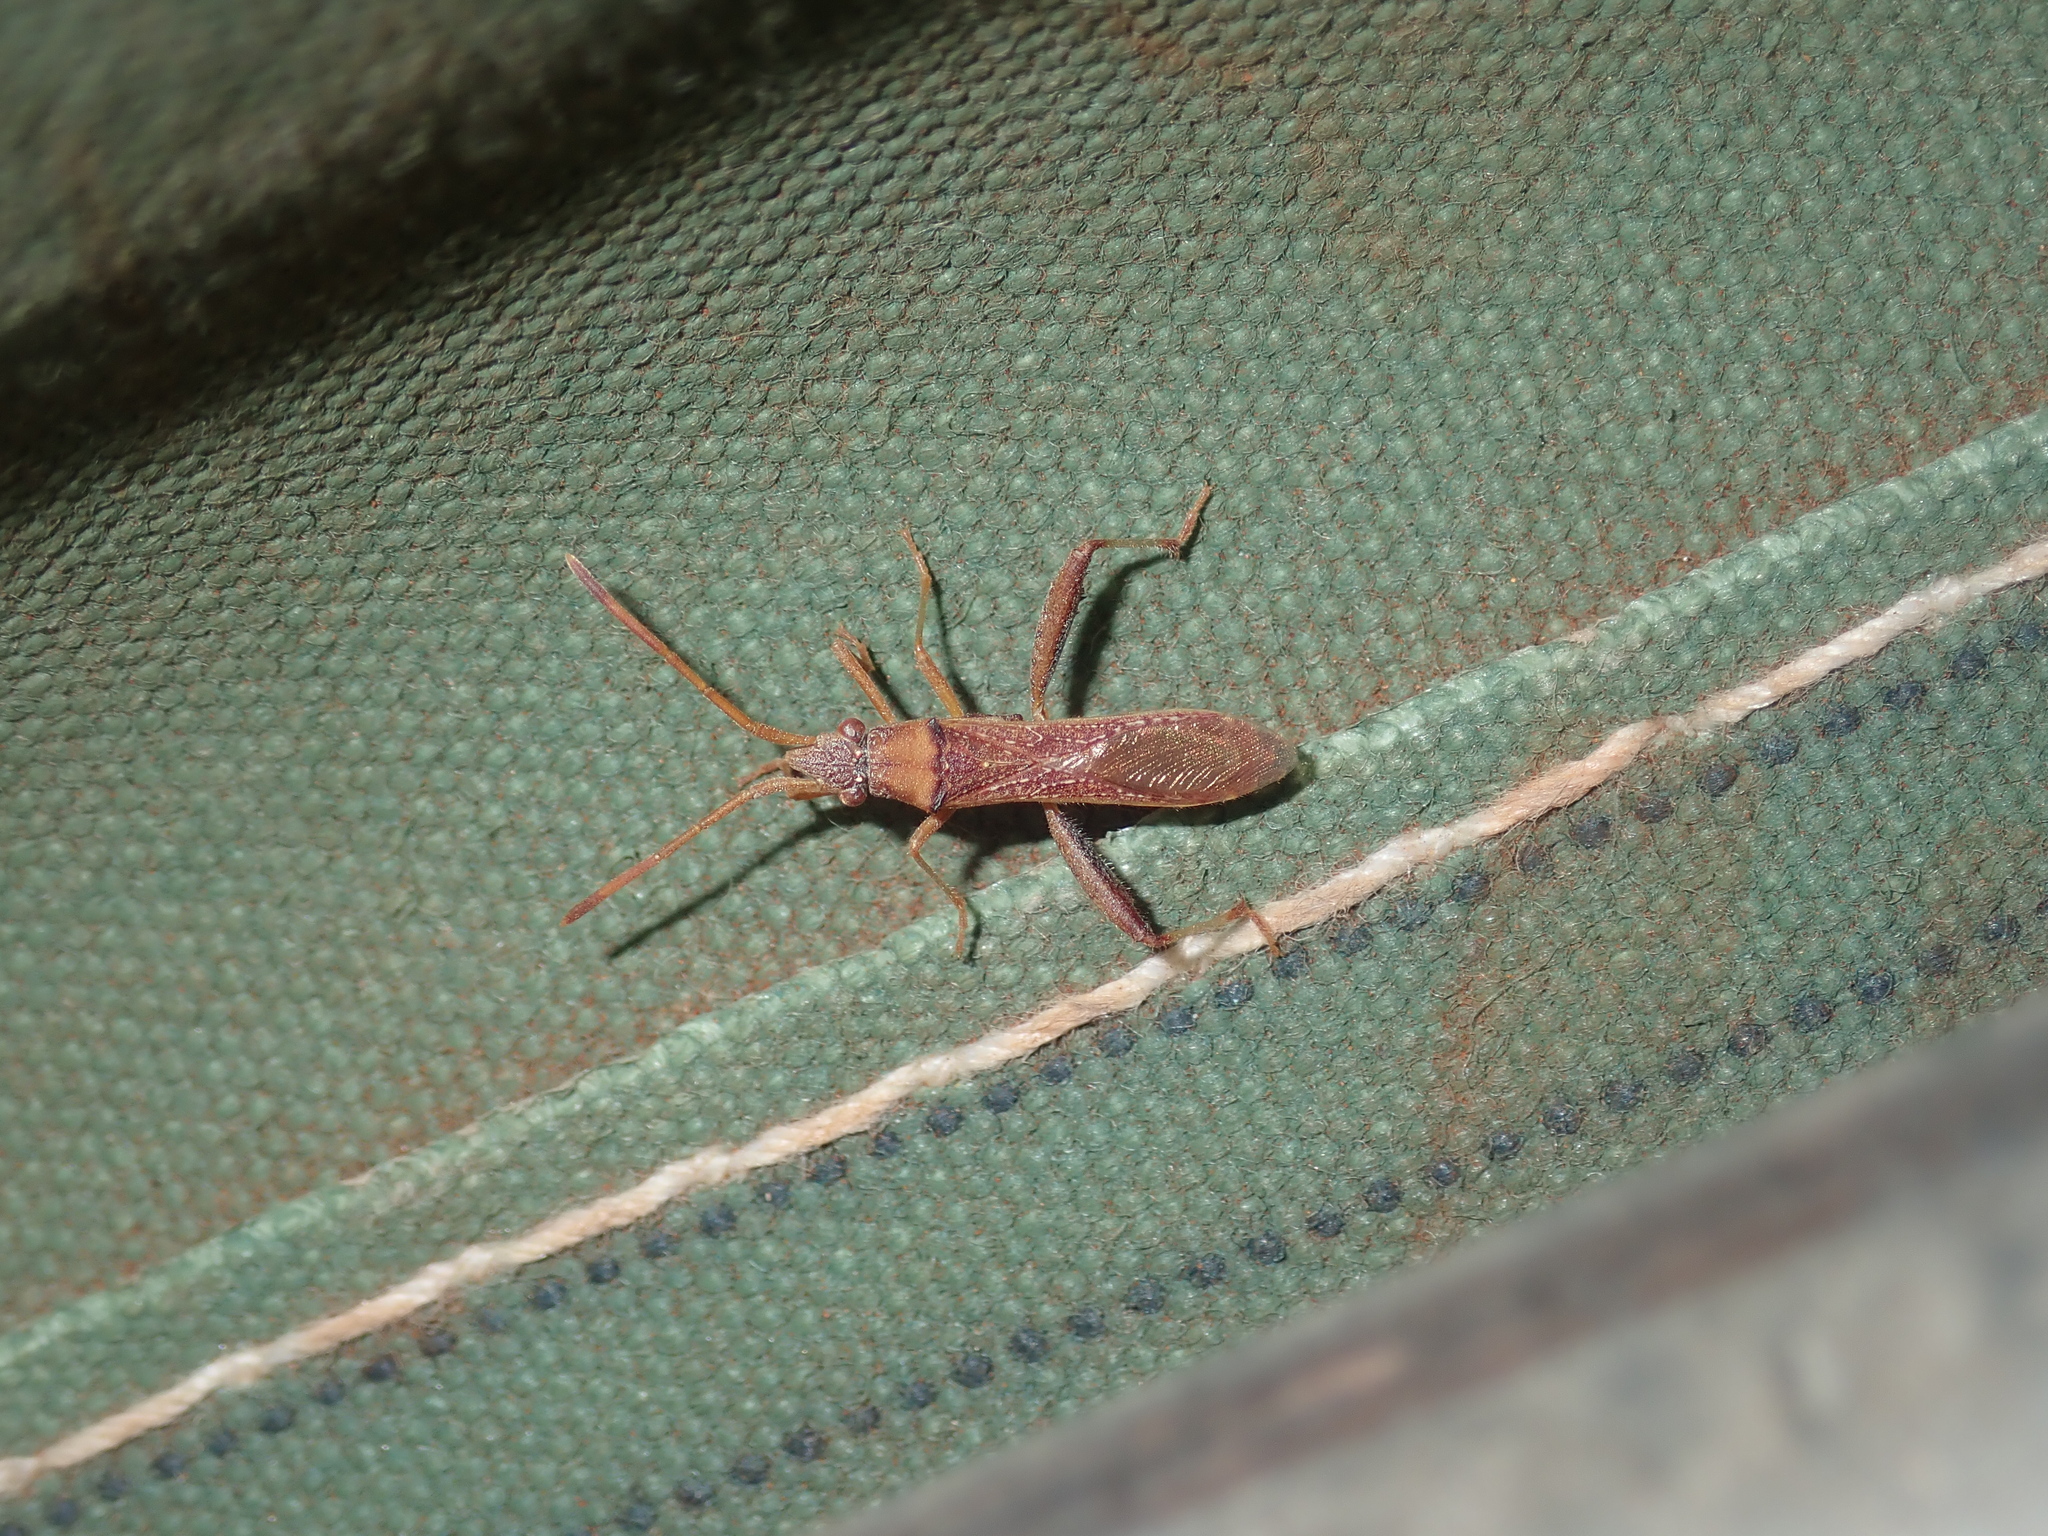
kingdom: Animalia
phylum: Arthropoda
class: Insecta
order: Hemiptera
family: Alydidae
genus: Hamedius
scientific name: Hamedius incarnatus
